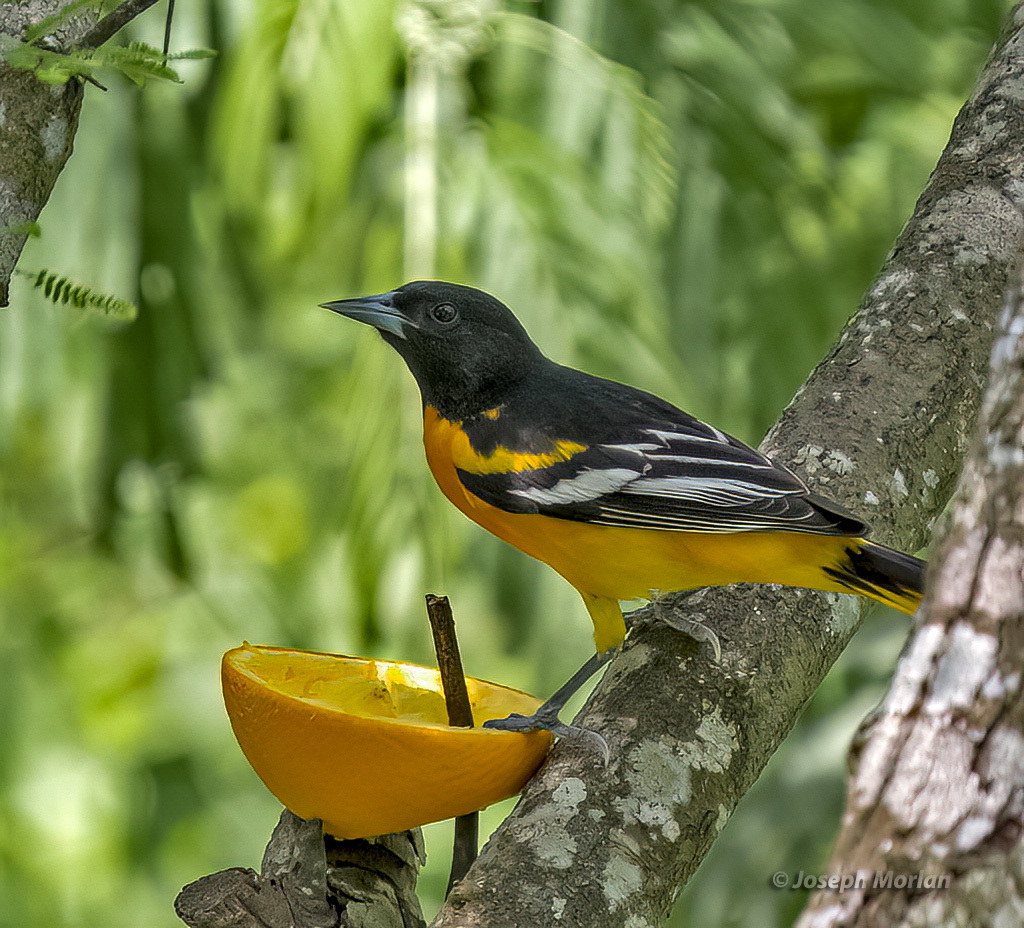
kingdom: Animalia
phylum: Chordata
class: Aves
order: Passeriformes
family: Icteridae
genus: Icterus
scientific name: Icterus galbula
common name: Baltimore oriole
